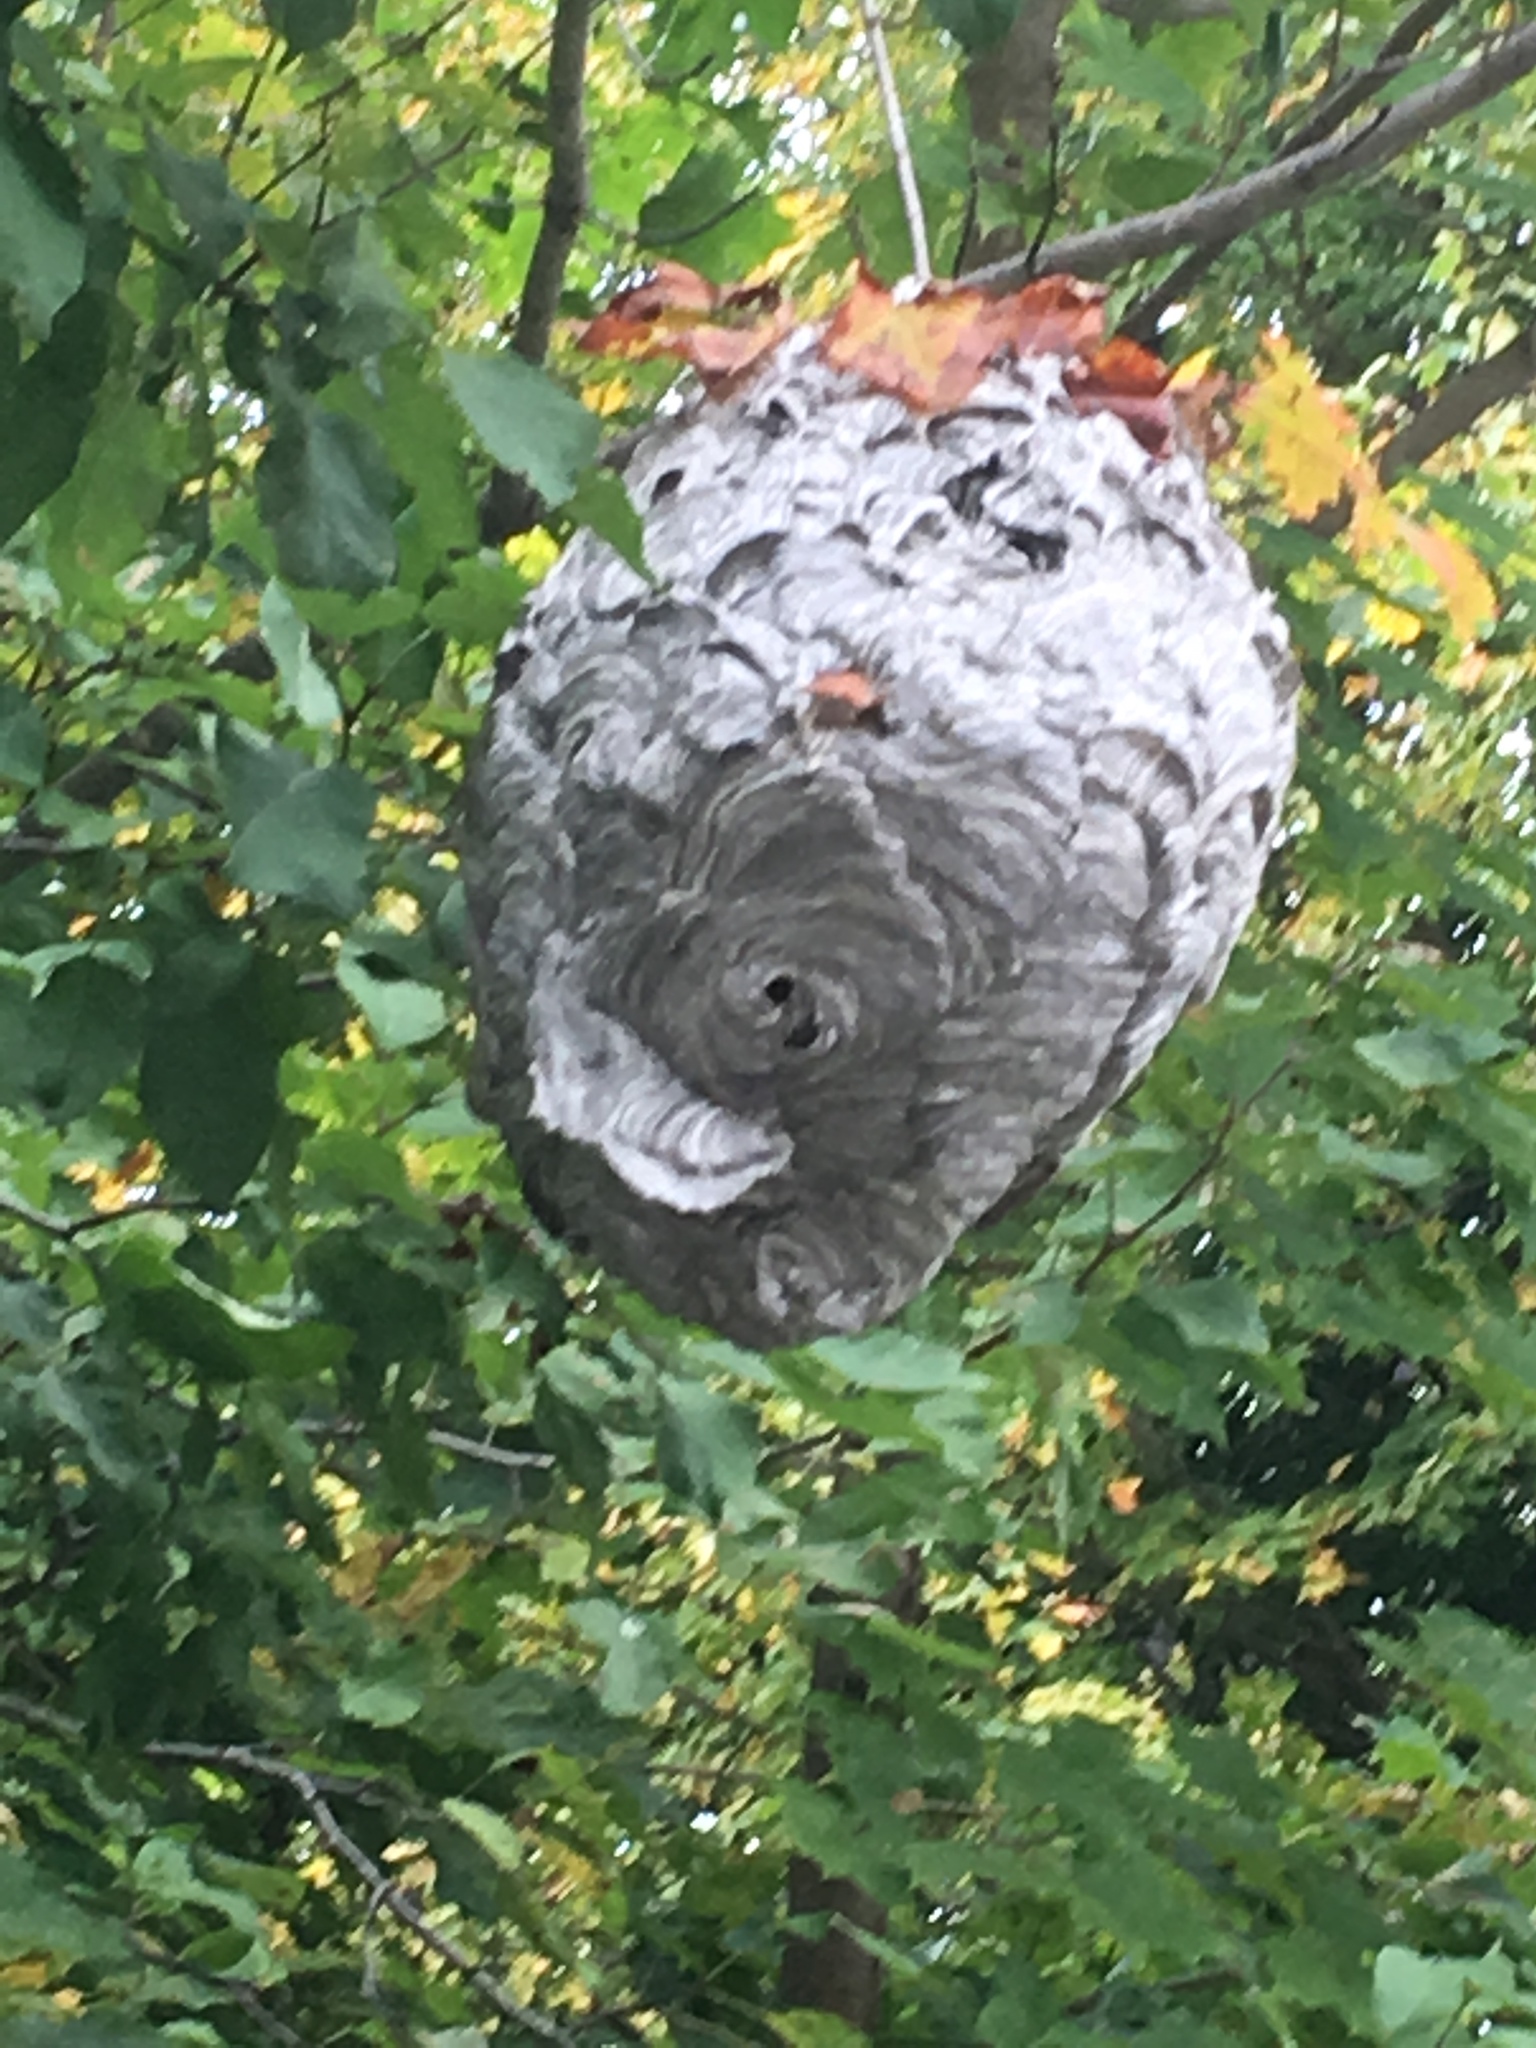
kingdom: Animalia
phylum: Arthropoda
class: Insecta
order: Hymenoptera
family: Vespidae
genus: Dolichovespula
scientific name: Dolichovespula maculata
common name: Bald-faced hornet
